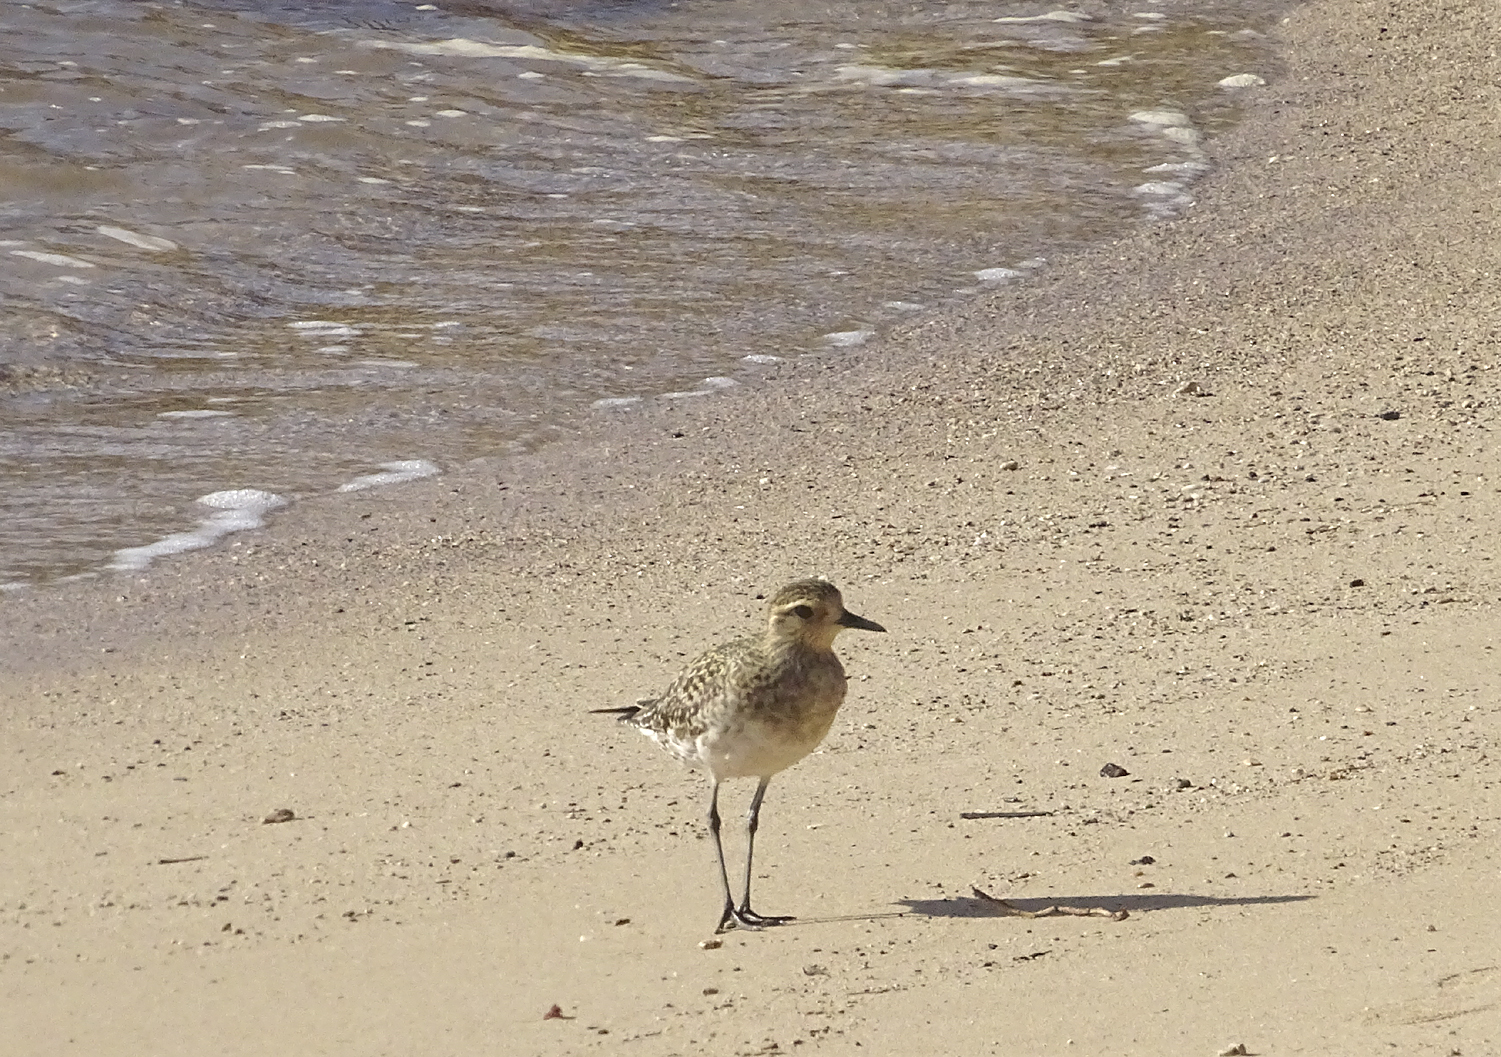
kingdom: Animalia
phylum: Chordata
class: Aves
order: Charadriiformes
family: Charadriidae
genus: Pluvialis
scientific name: Pluvialis fulva
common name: Pacific golden plover
